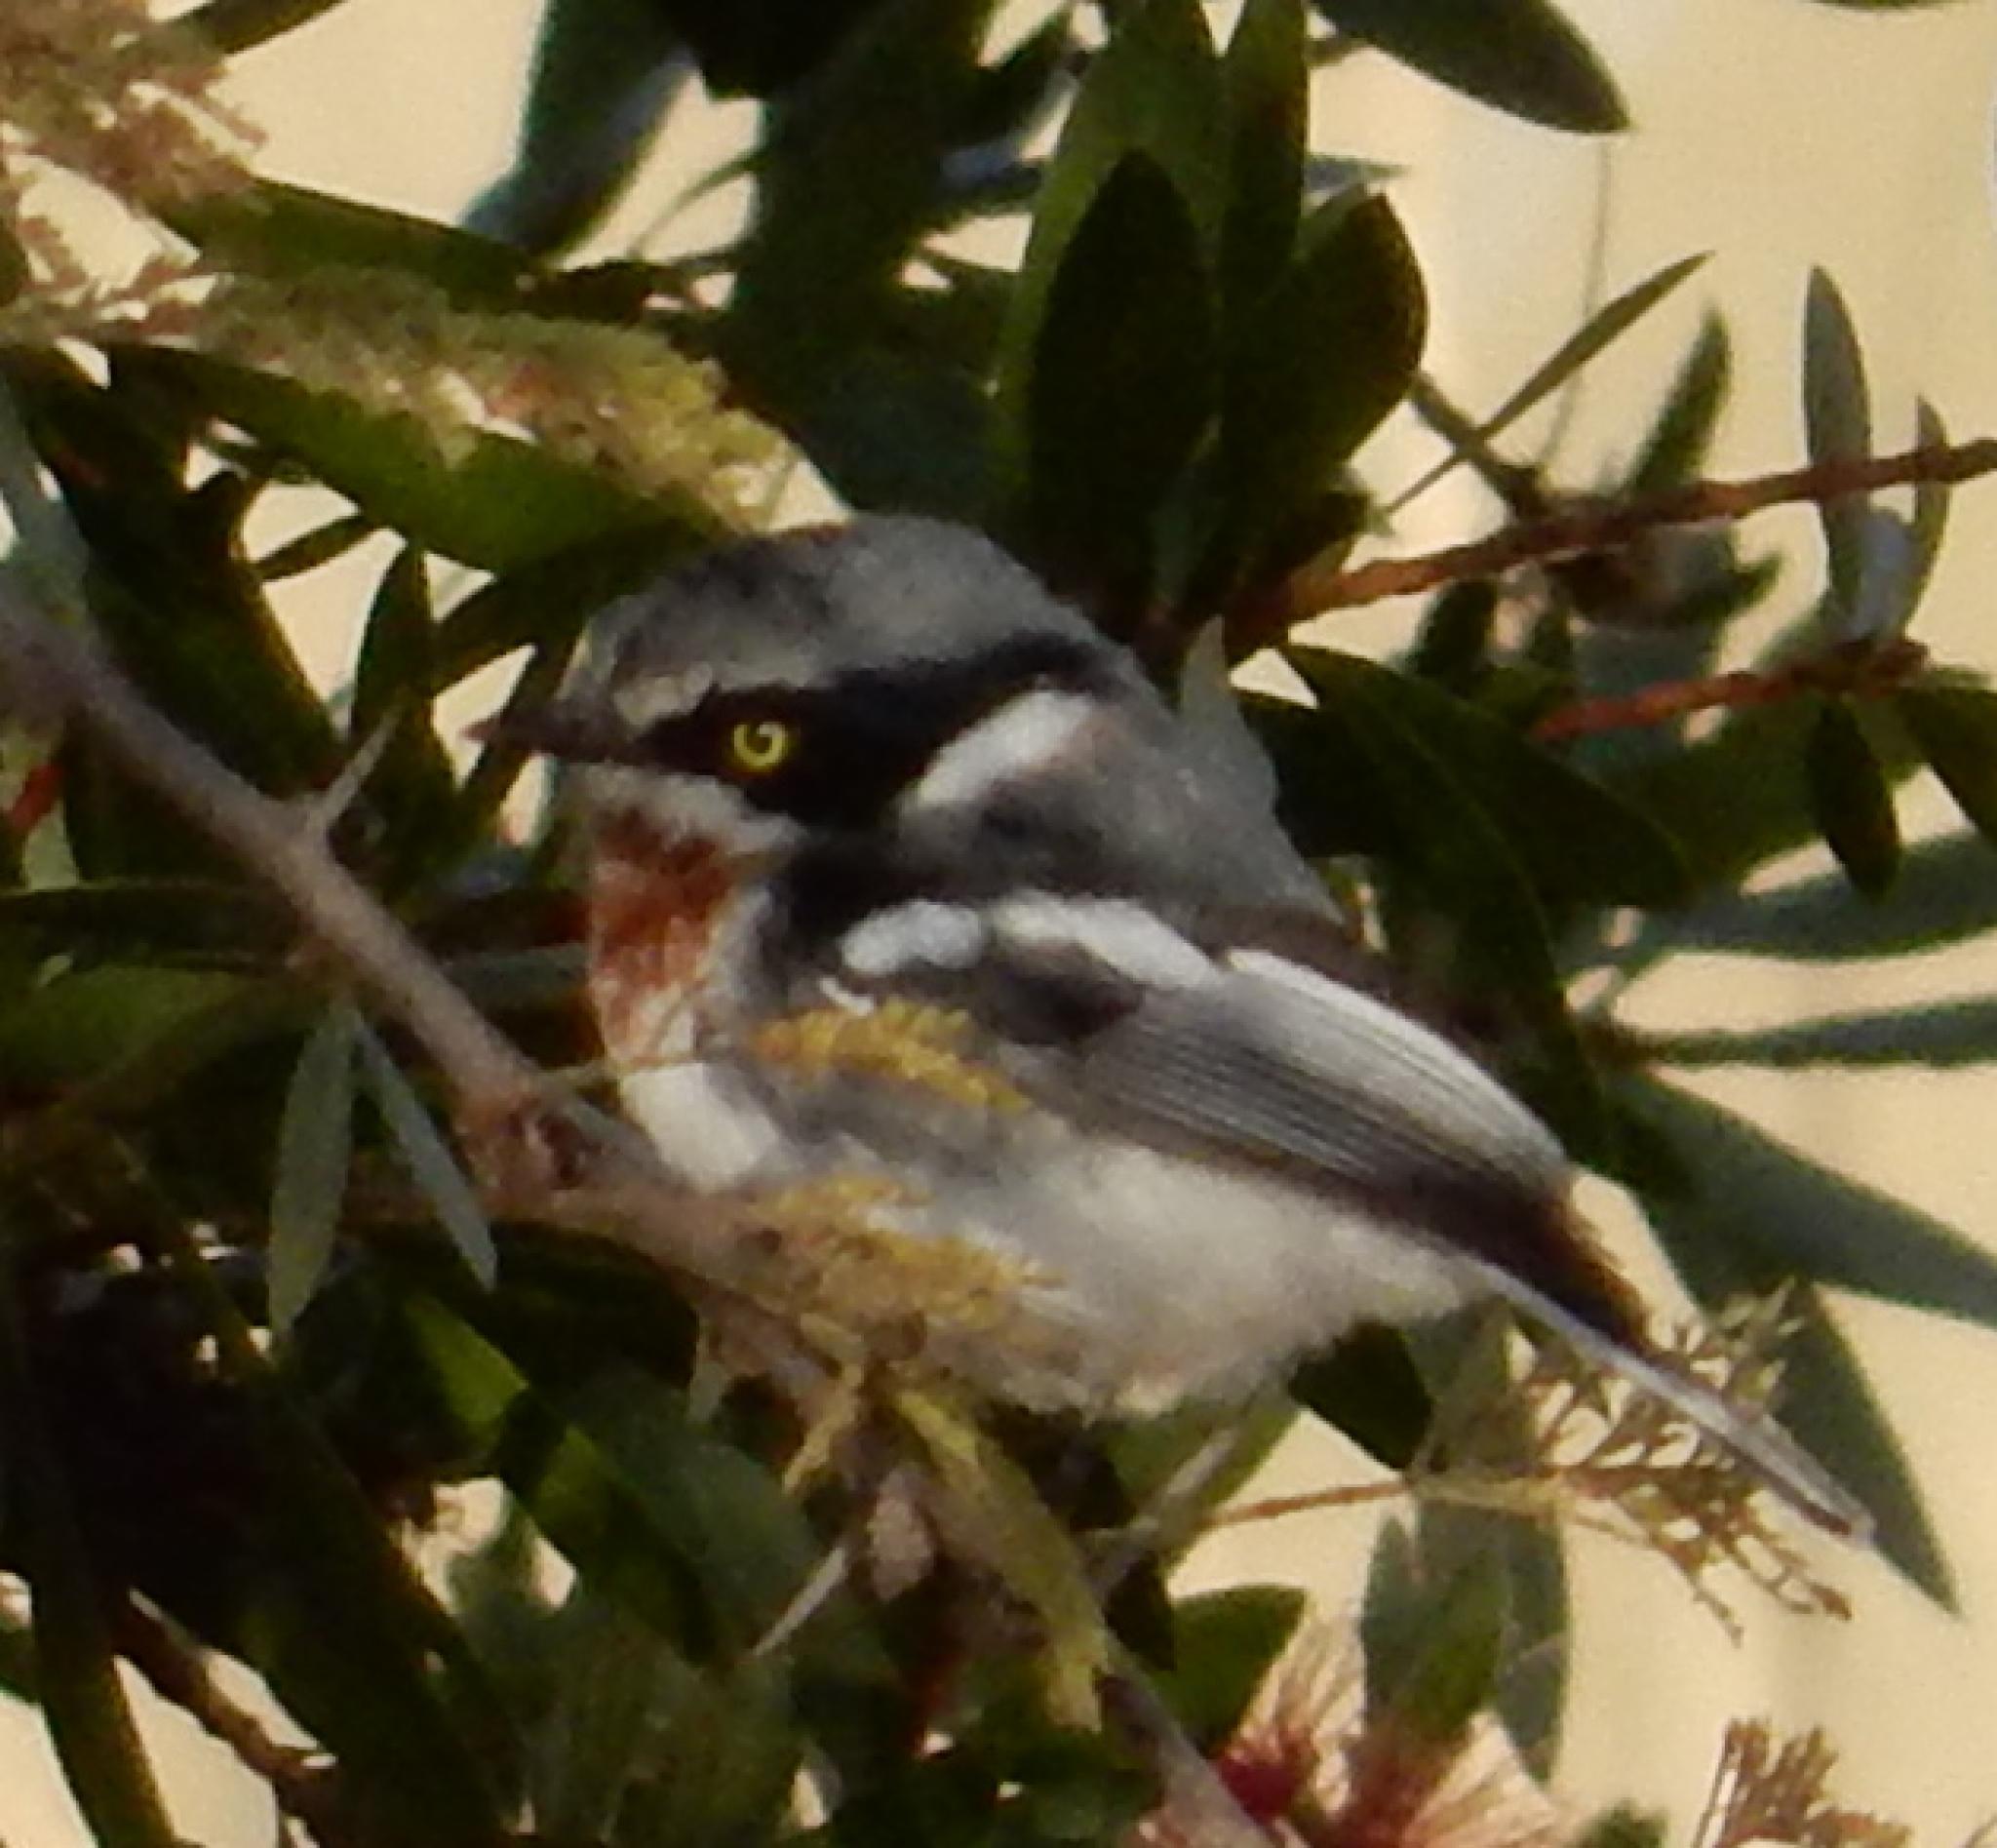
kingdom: Animalia
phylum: Chordata
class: Aves
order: Passeriformes
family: Platysteiridae
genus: Batis
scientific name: Batis molitor
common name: Chinspot batis
